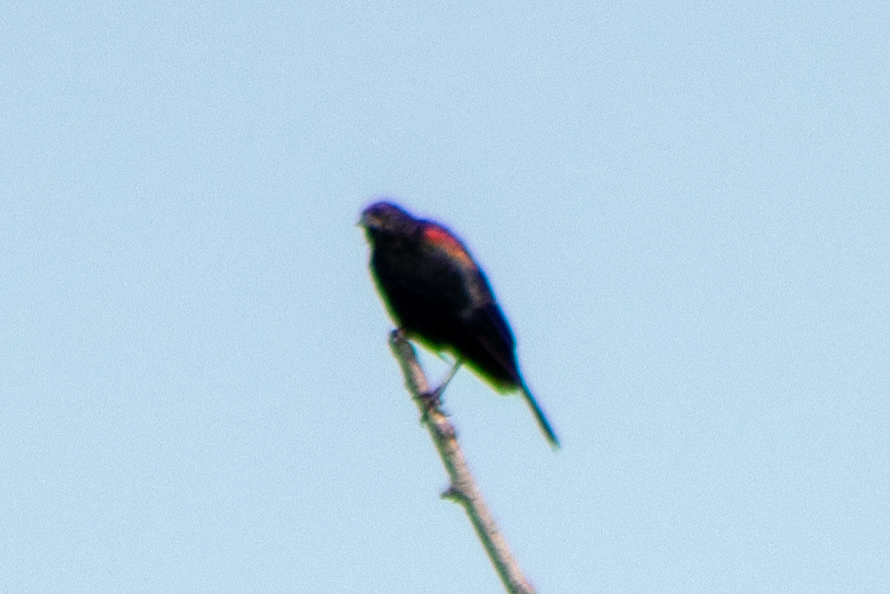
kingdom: Animalia
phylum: Chordata
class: Aves
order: Passeriformes
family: Icteridae
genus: Agelaius
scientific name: Agelaius phoeniceus
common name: Red-winged blackbird
